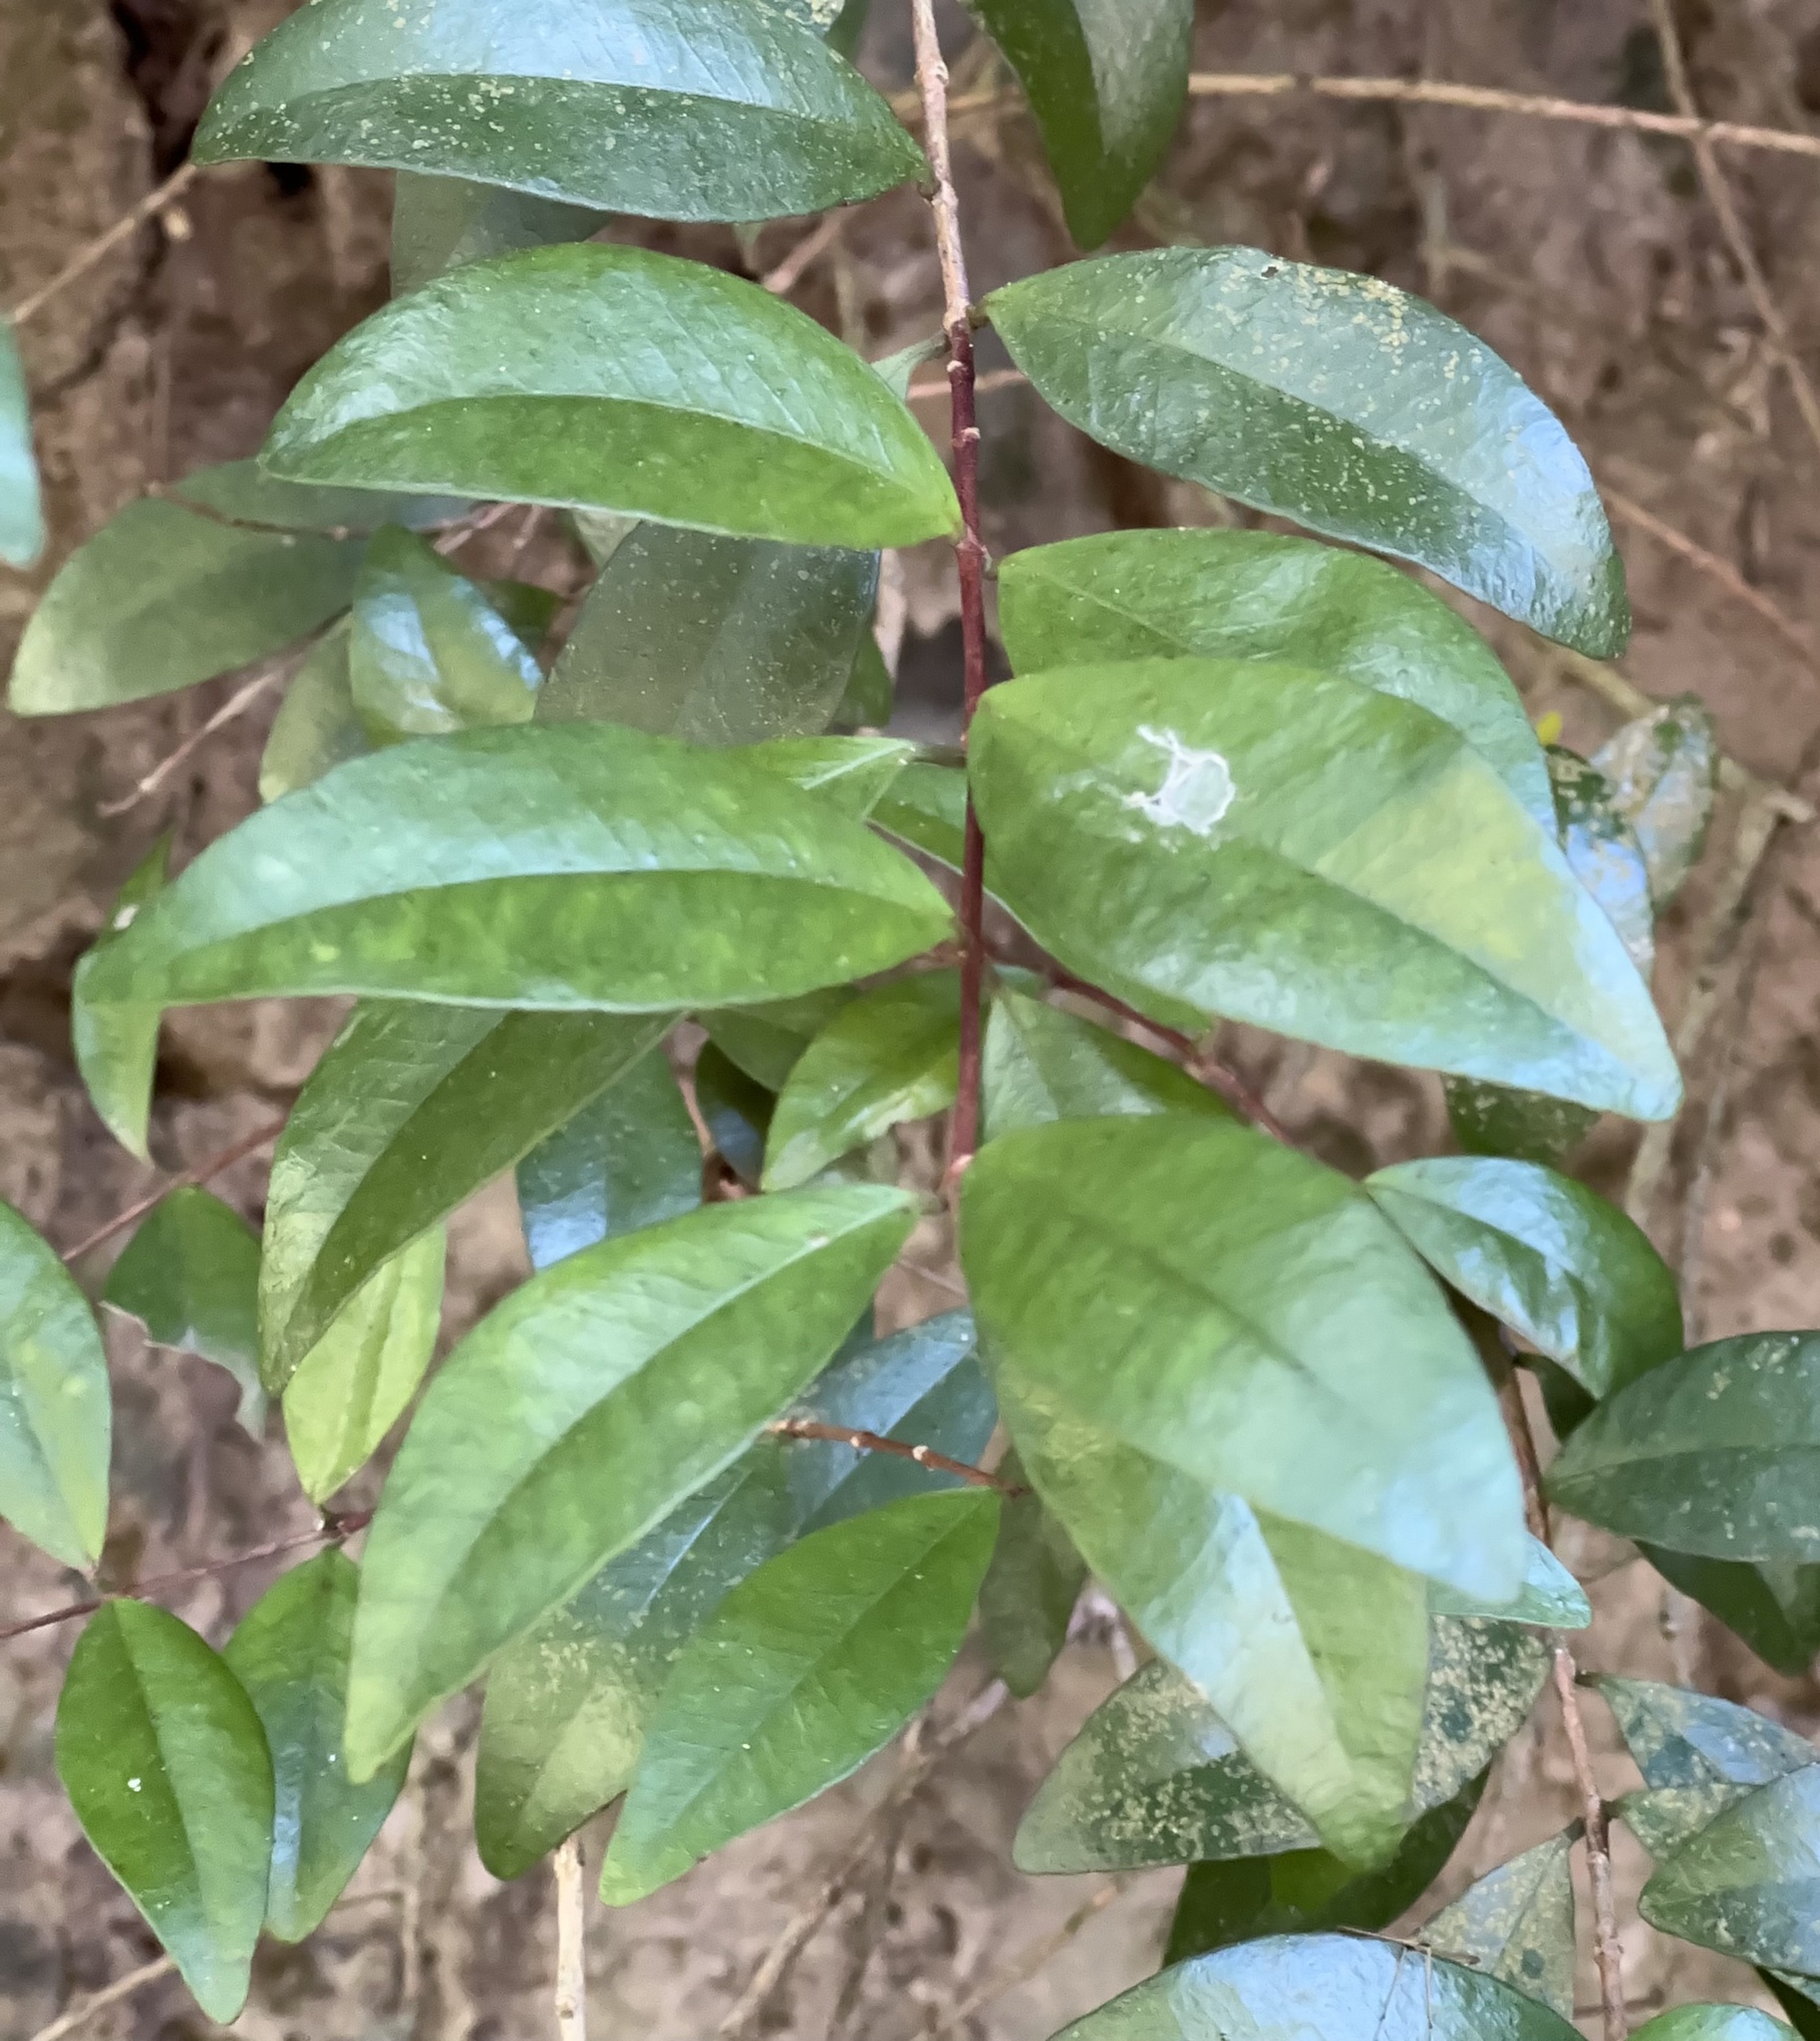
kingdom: Plantae
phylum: Tracheophyta
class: Magnoliopsida
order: Myrtales
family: Myrtaceae
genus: Metrosideros
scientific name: Metrosideros fulgens
